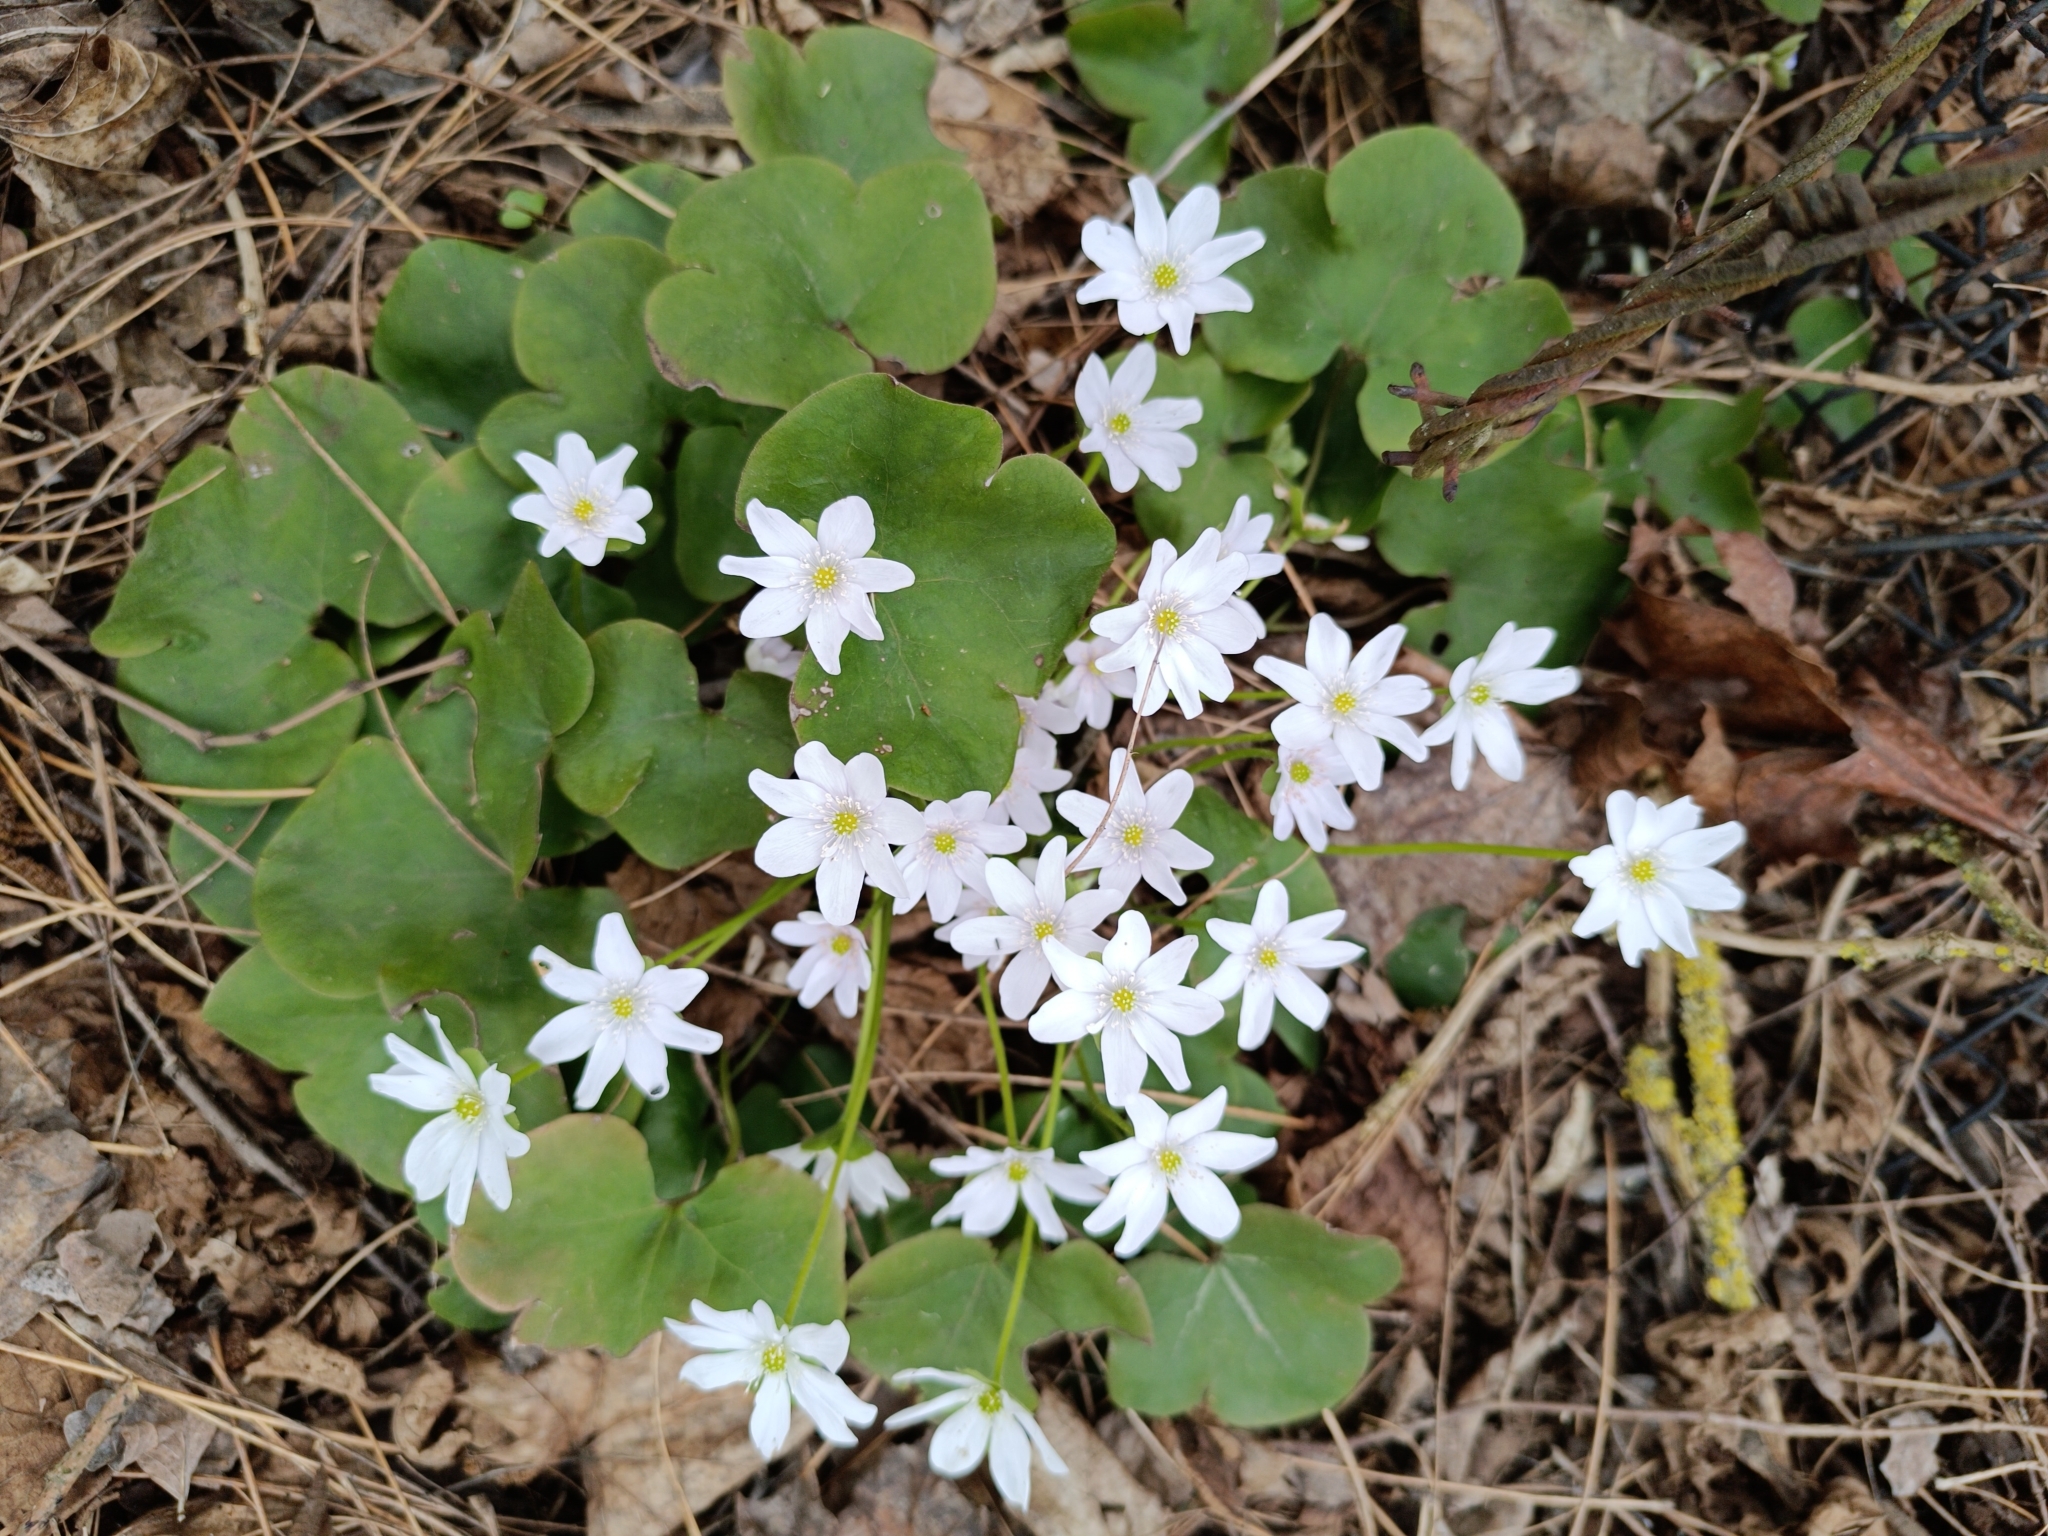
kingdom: Plantae
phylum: Tracheophyta
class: Magnoliopsida
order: Ranunculales
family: Ranunculaceae
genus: Hepatica
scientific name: Hepatica nobilis
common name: Liverleaf
